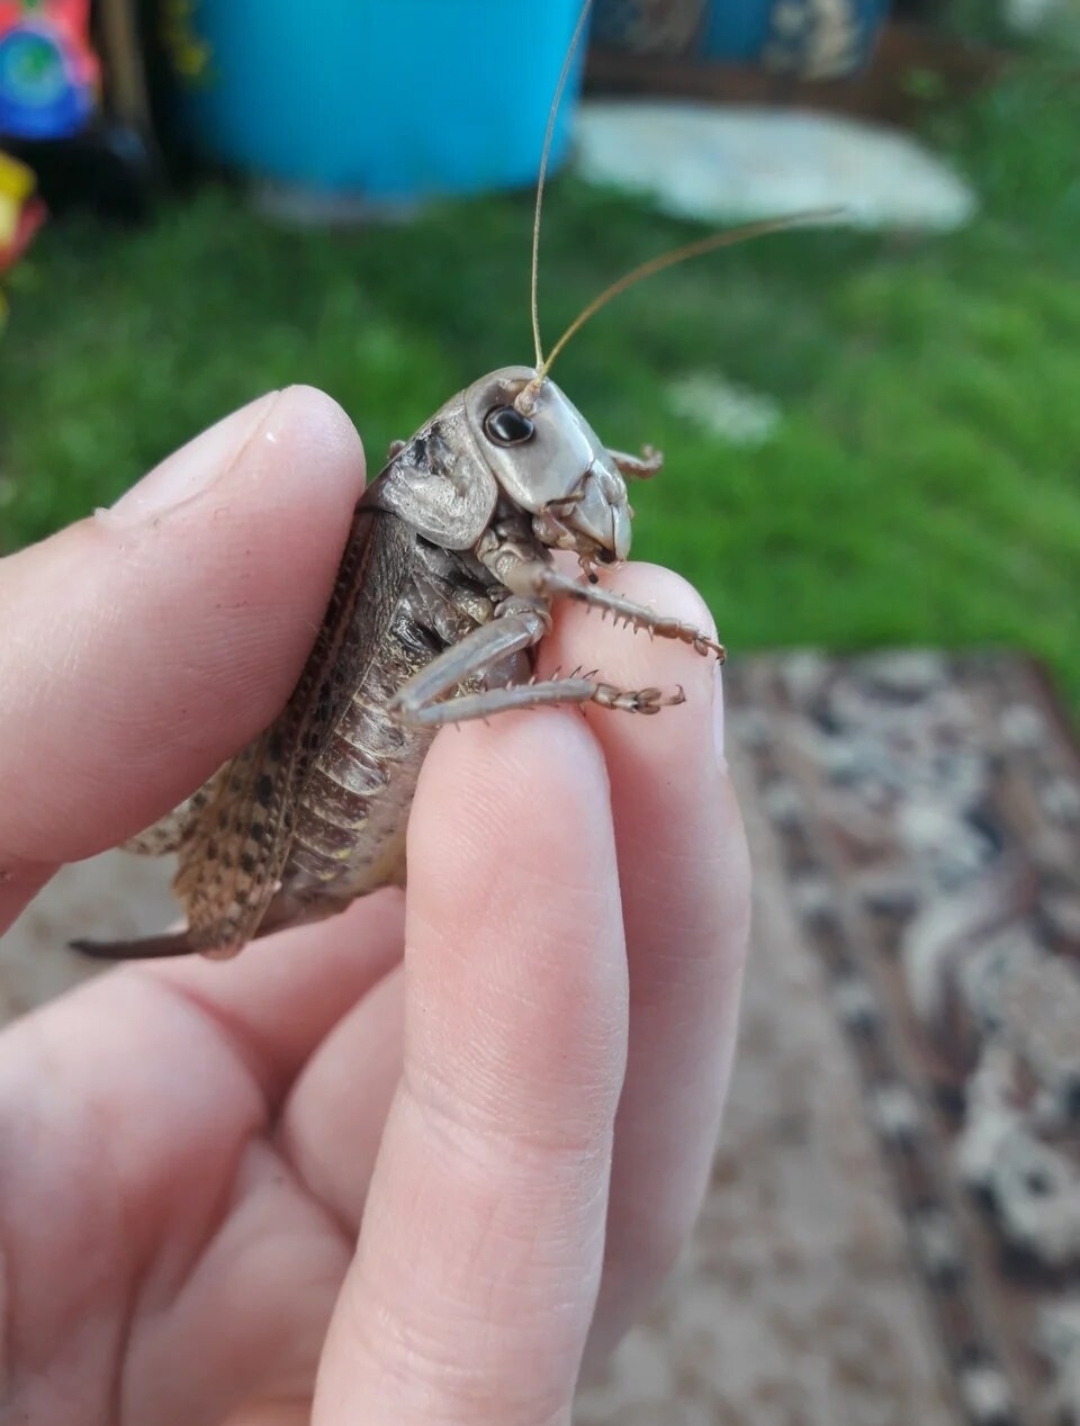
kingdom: Animalia
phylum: Arthropoda
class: Insecta
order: Orthoptera
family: Tettigoniidae
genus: Decticus
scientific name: Decticus verrucivorus
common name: Wart-biter
